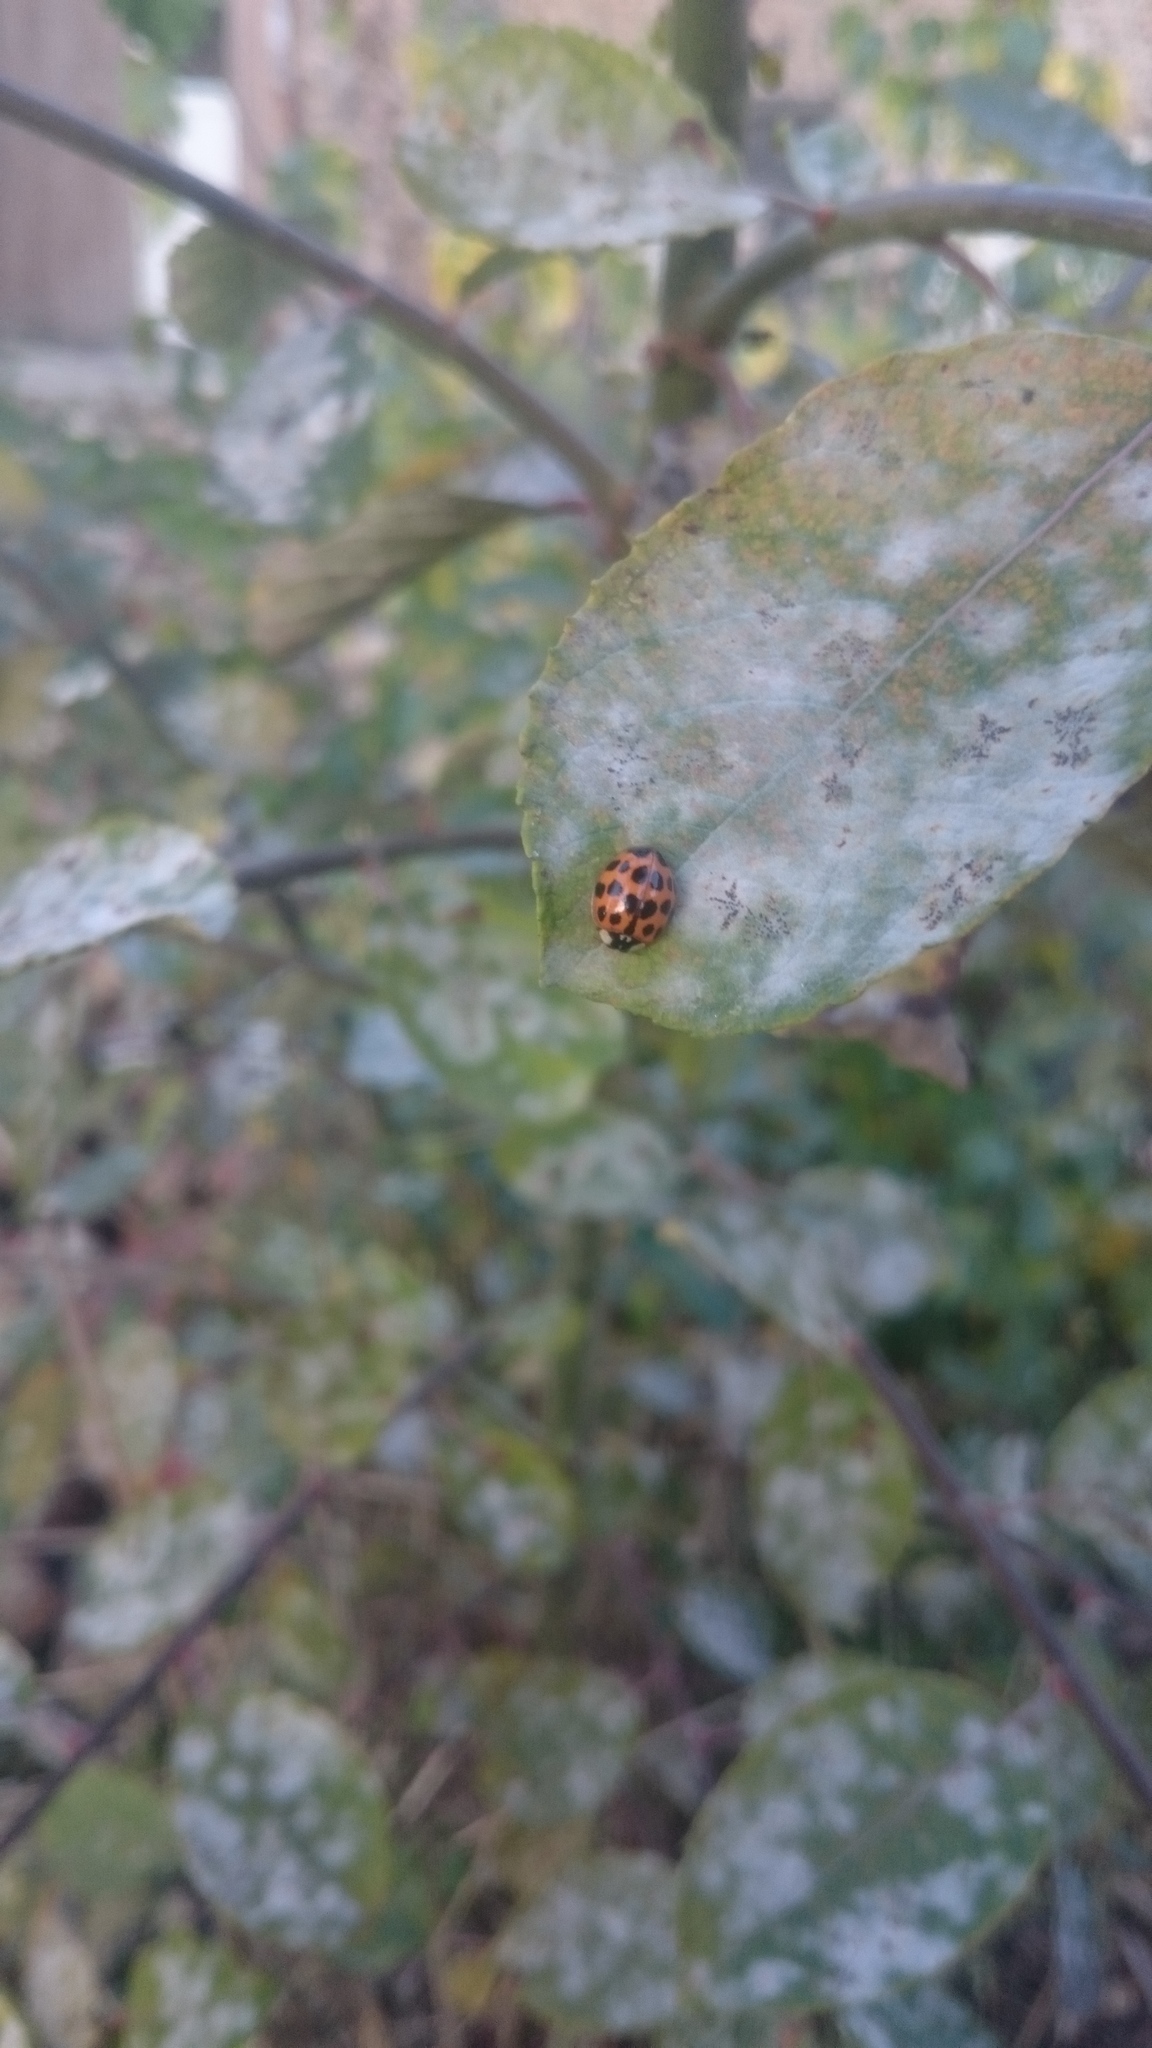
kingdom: Animalia
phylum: Arthropoda
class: Insecta
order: Coleoptera
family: Coccinellidae
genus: Harmonia
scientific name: Harmonia axyridis
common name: Harlequin ladybird
